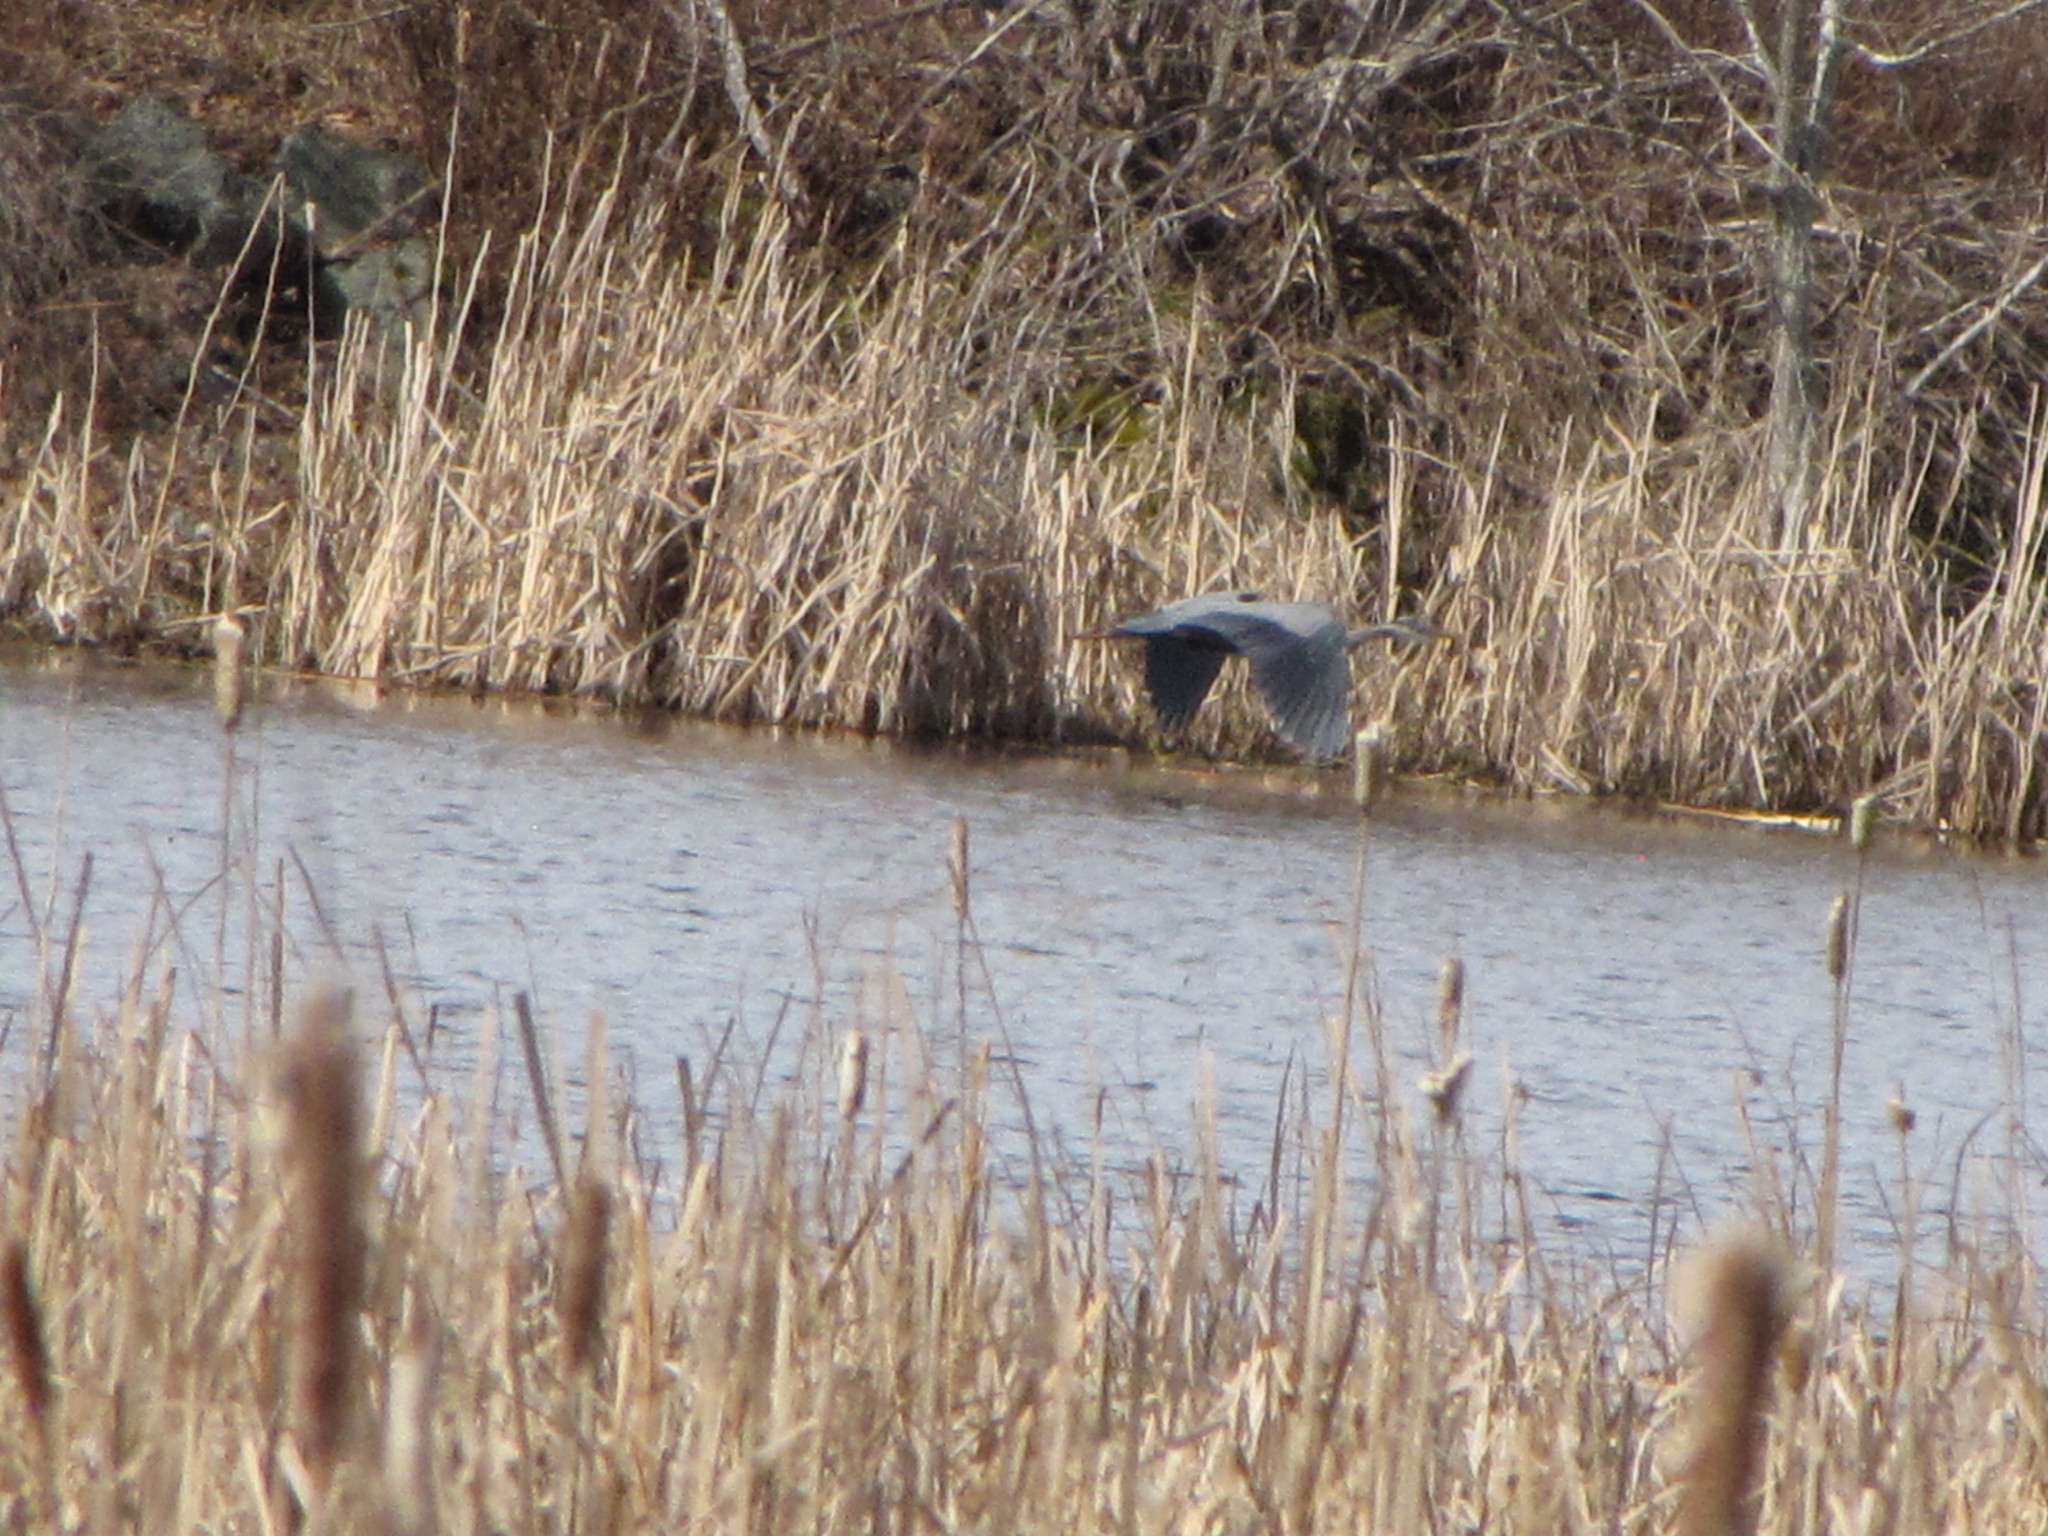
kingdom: Animalia
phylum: Chordata
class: Aves
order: Pelecaniformes
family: Ardeidae
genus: Ardea
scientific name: Ardea herodias
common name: Great blue heron
